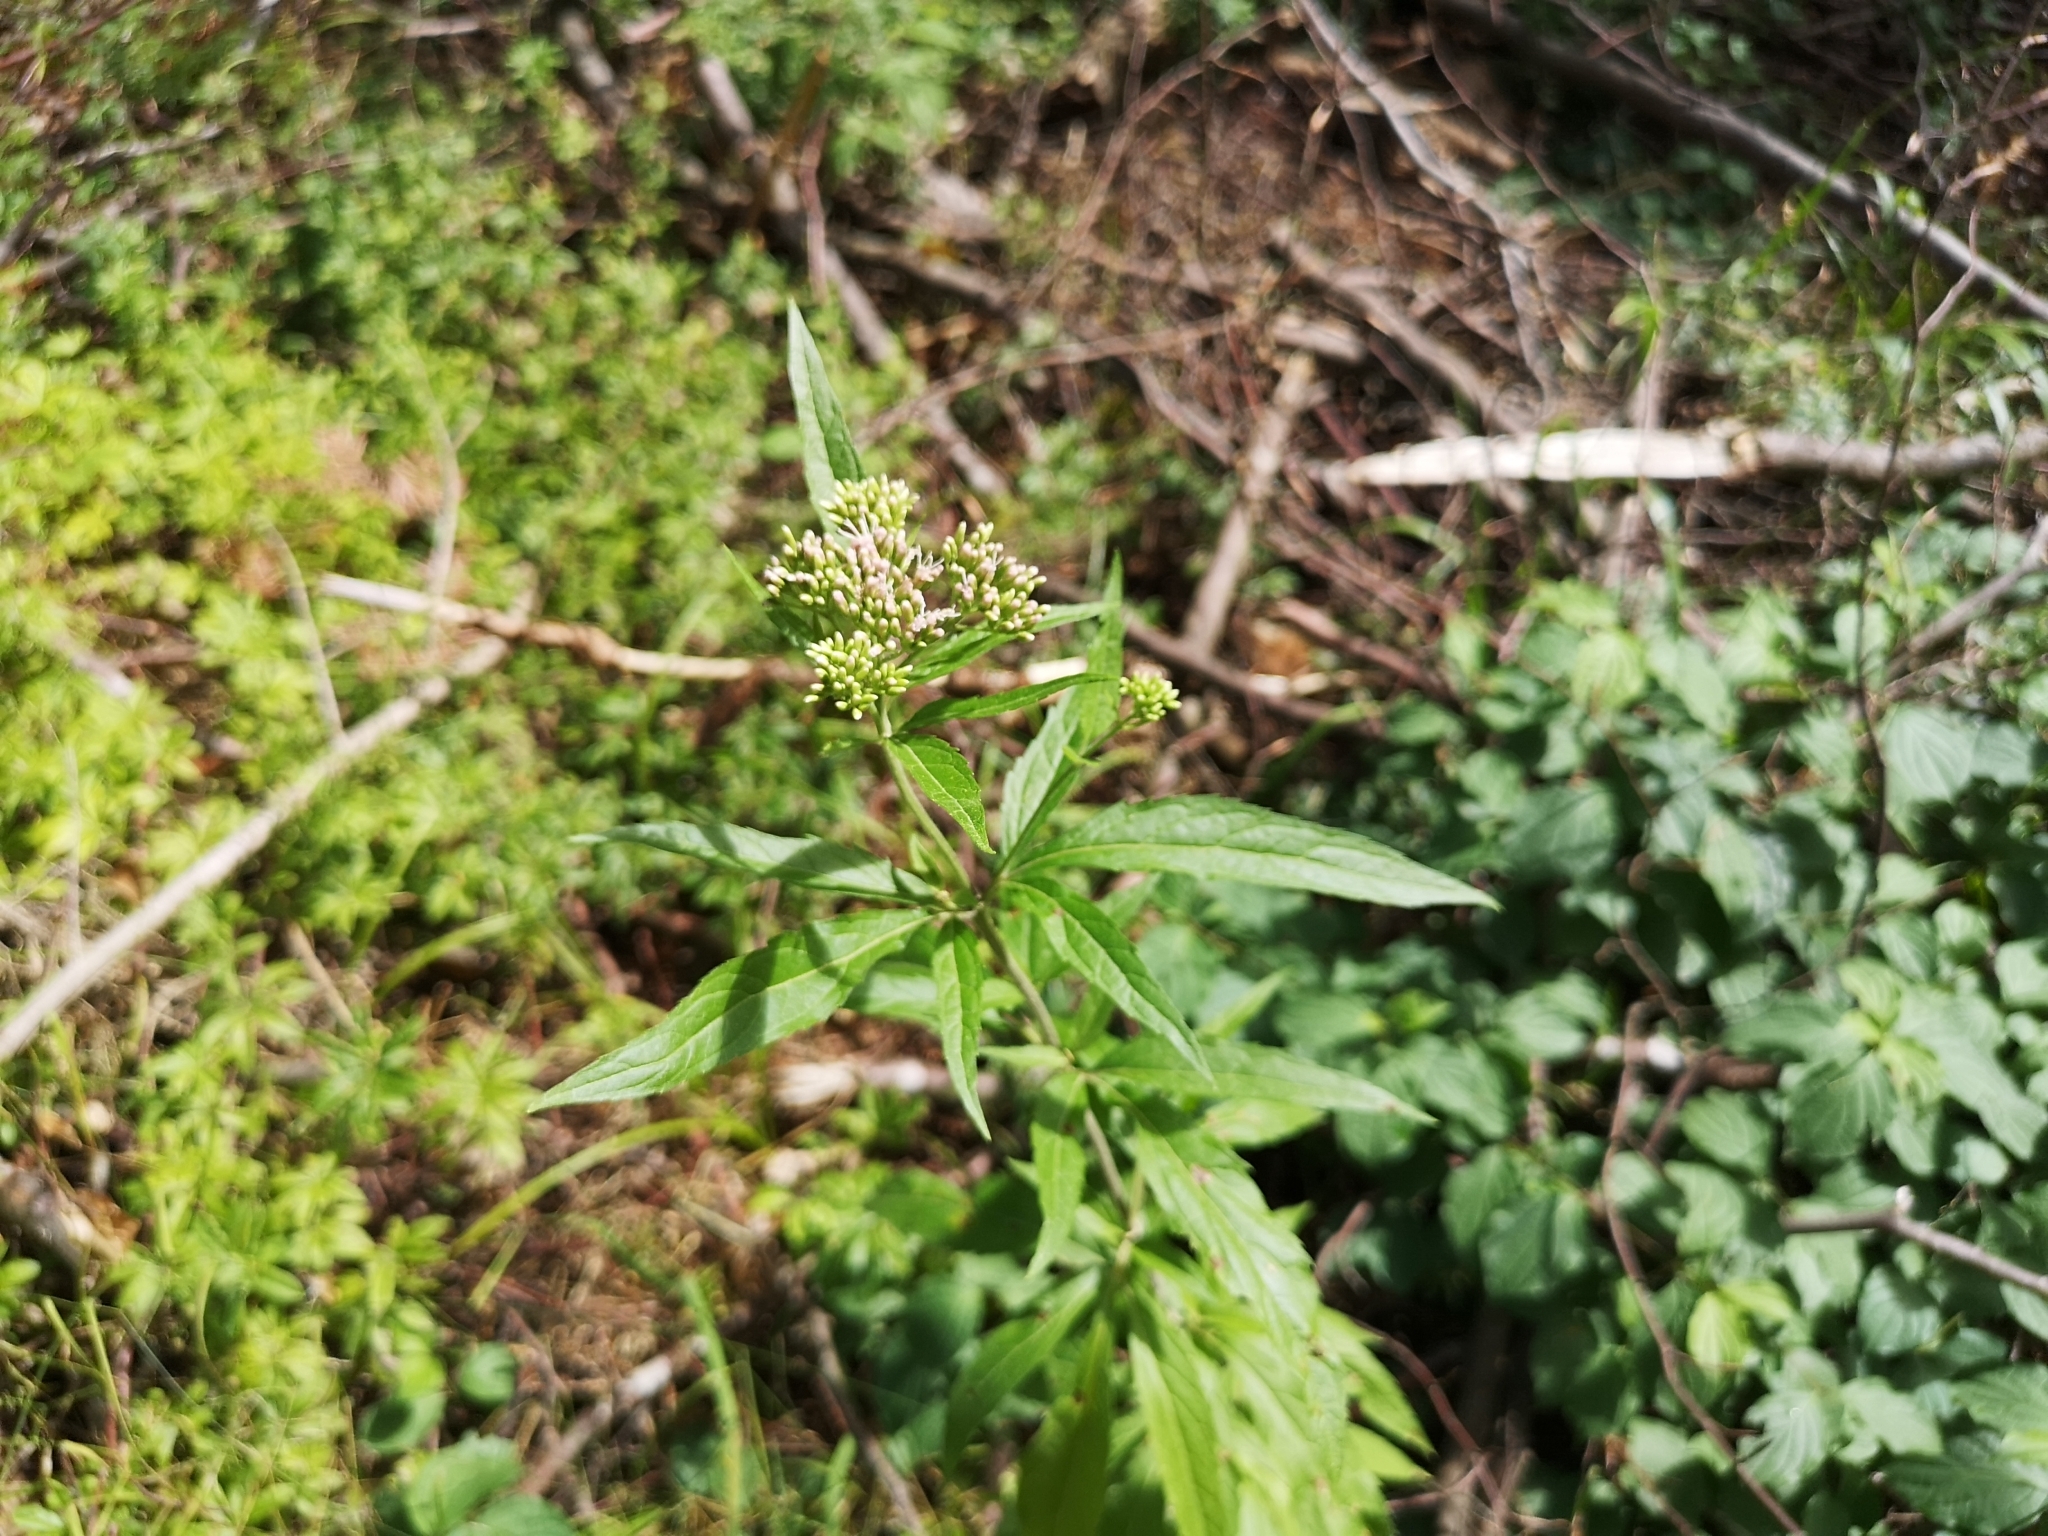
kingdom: Plantae
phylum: Tracheophyta
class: Magnoliopsida
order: Asterales
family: Asteraceae
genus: Eupatorium
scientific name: Eupatorium cannabinum
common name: Hemp-agrimony
